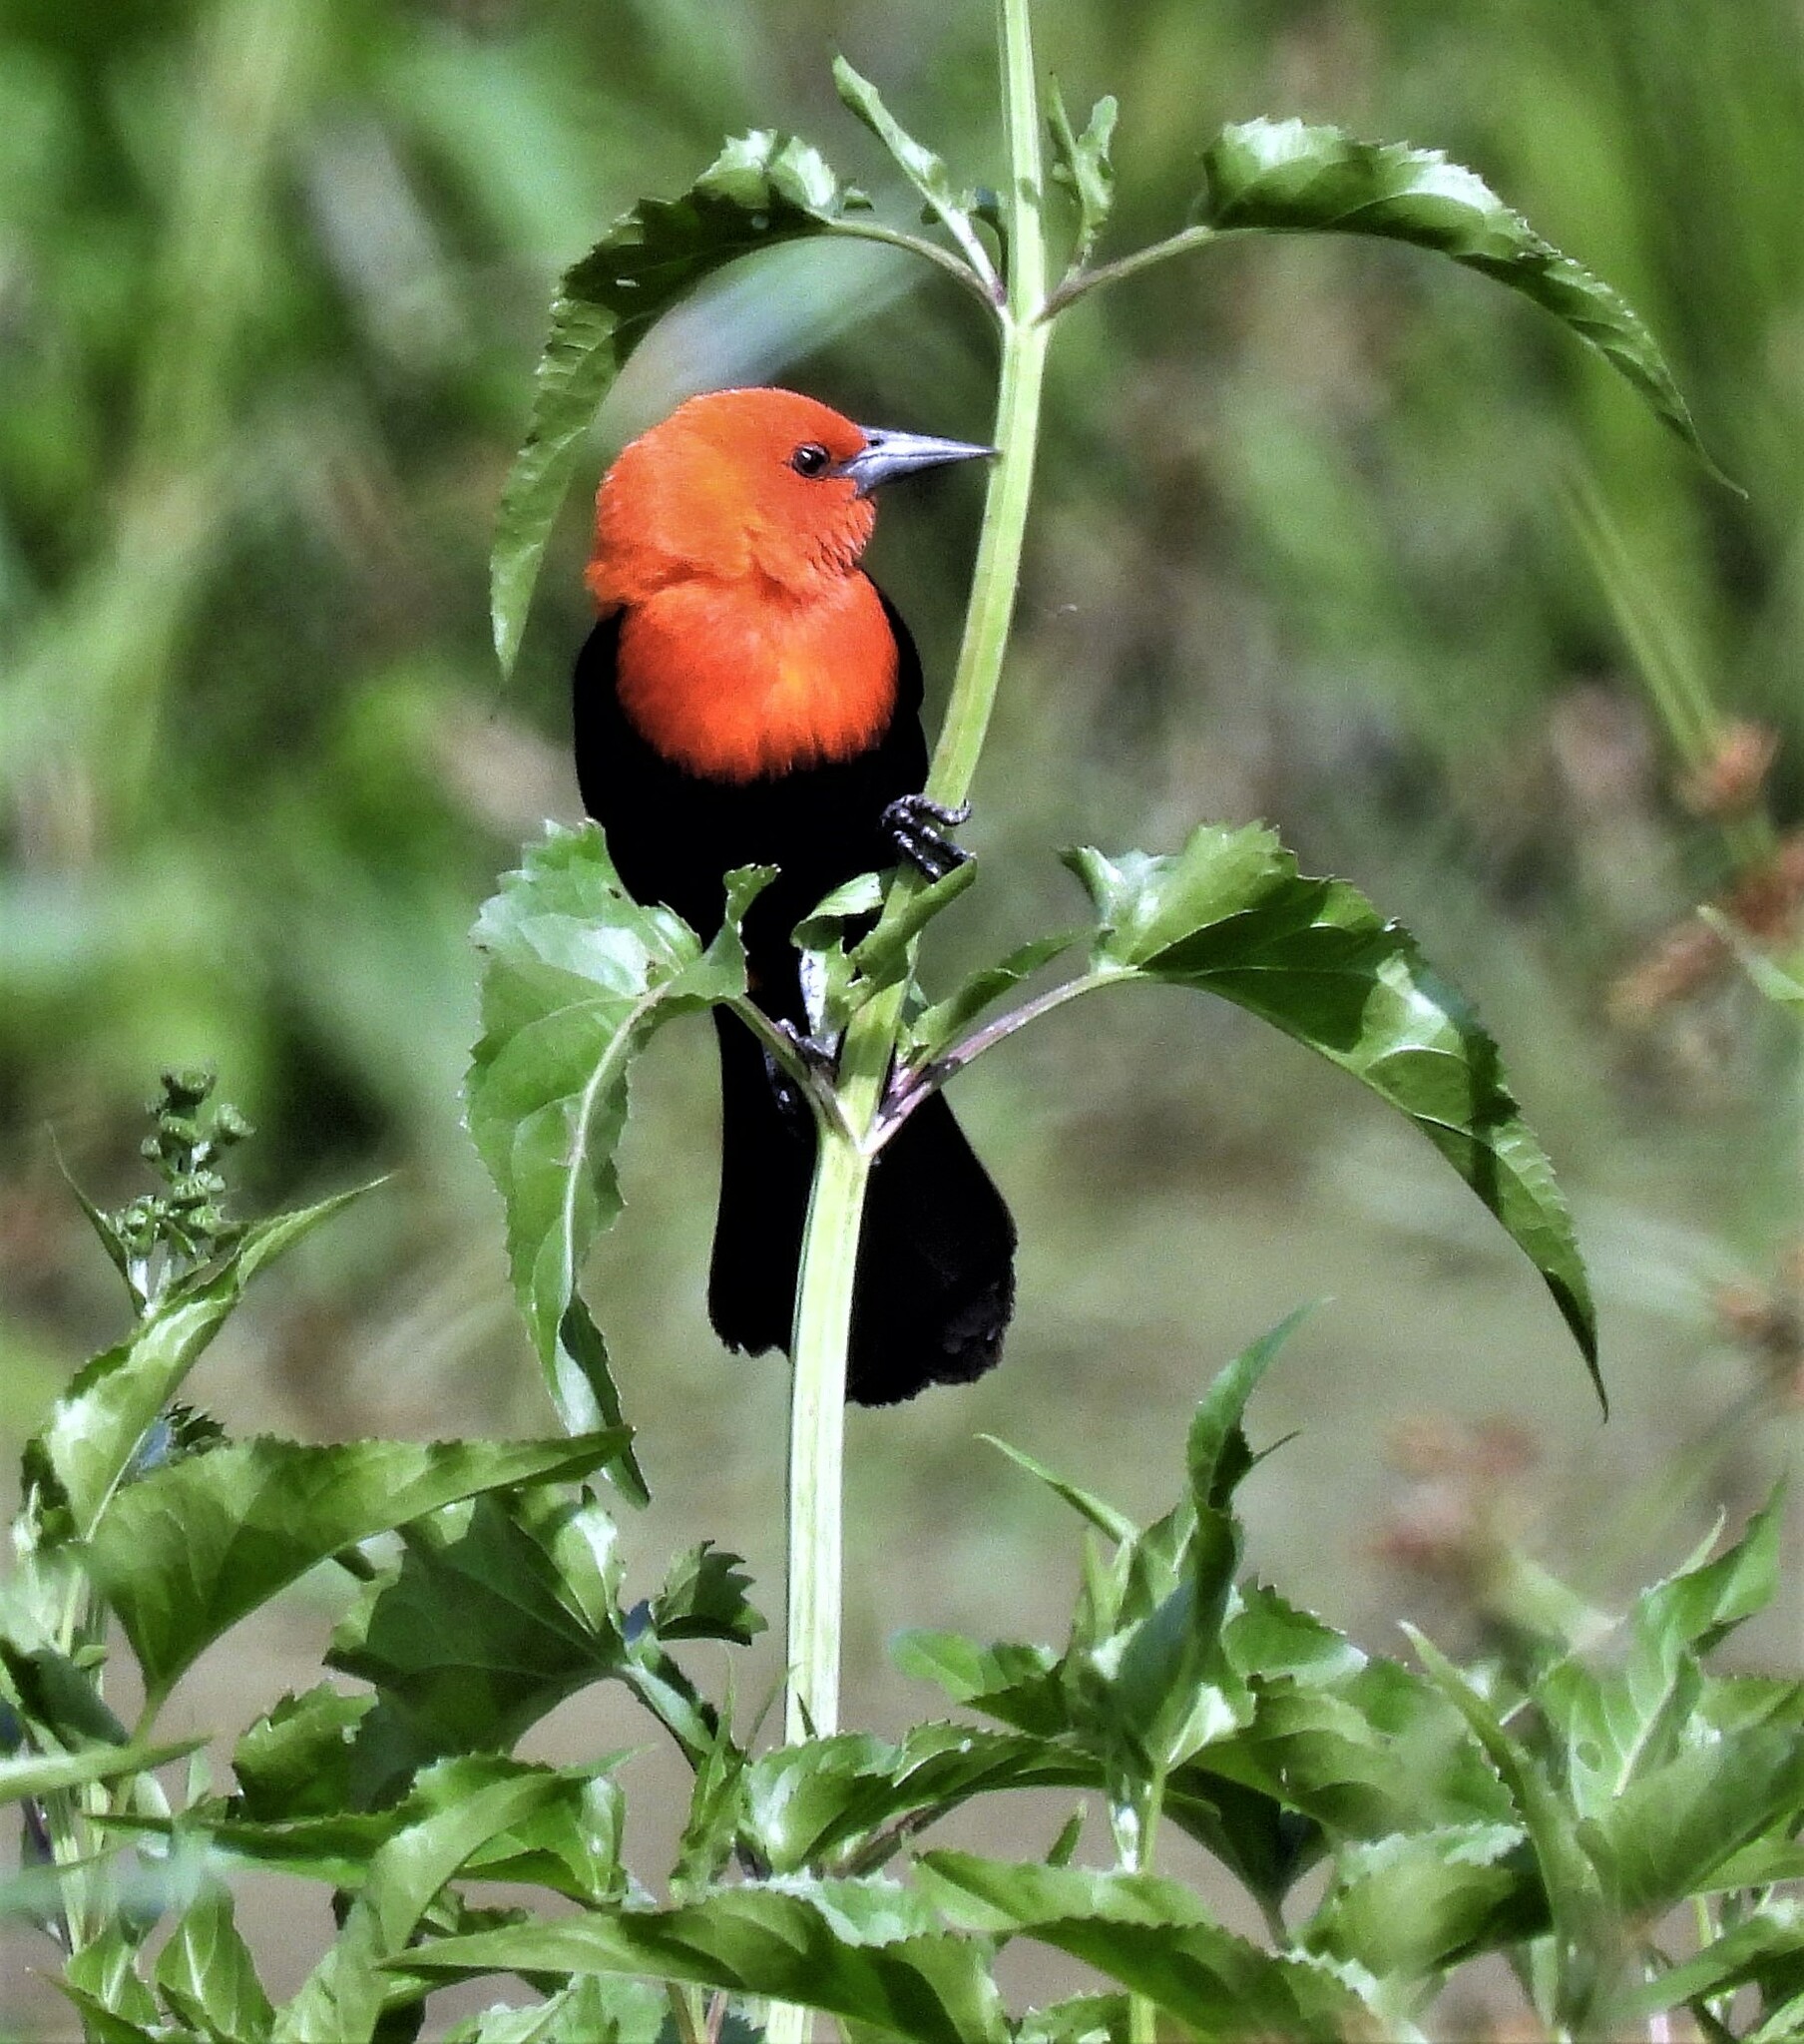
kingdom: Animalia
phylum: Chordata
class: Aves
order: Passeriformes
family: Icteridae
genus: Amblyramphus
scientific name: Amblyramphus holosericeus
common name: Scarlet-headed blackbird
